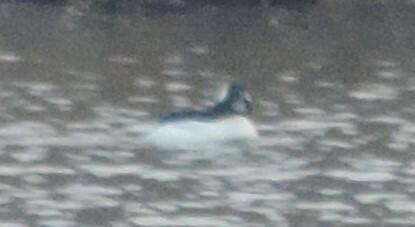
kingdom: Animalia
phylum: Chordata
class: Aves
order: Anseriformes
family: Anatidae
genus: Bucephala
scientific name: Bucephala albeola
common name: Bufflehead
